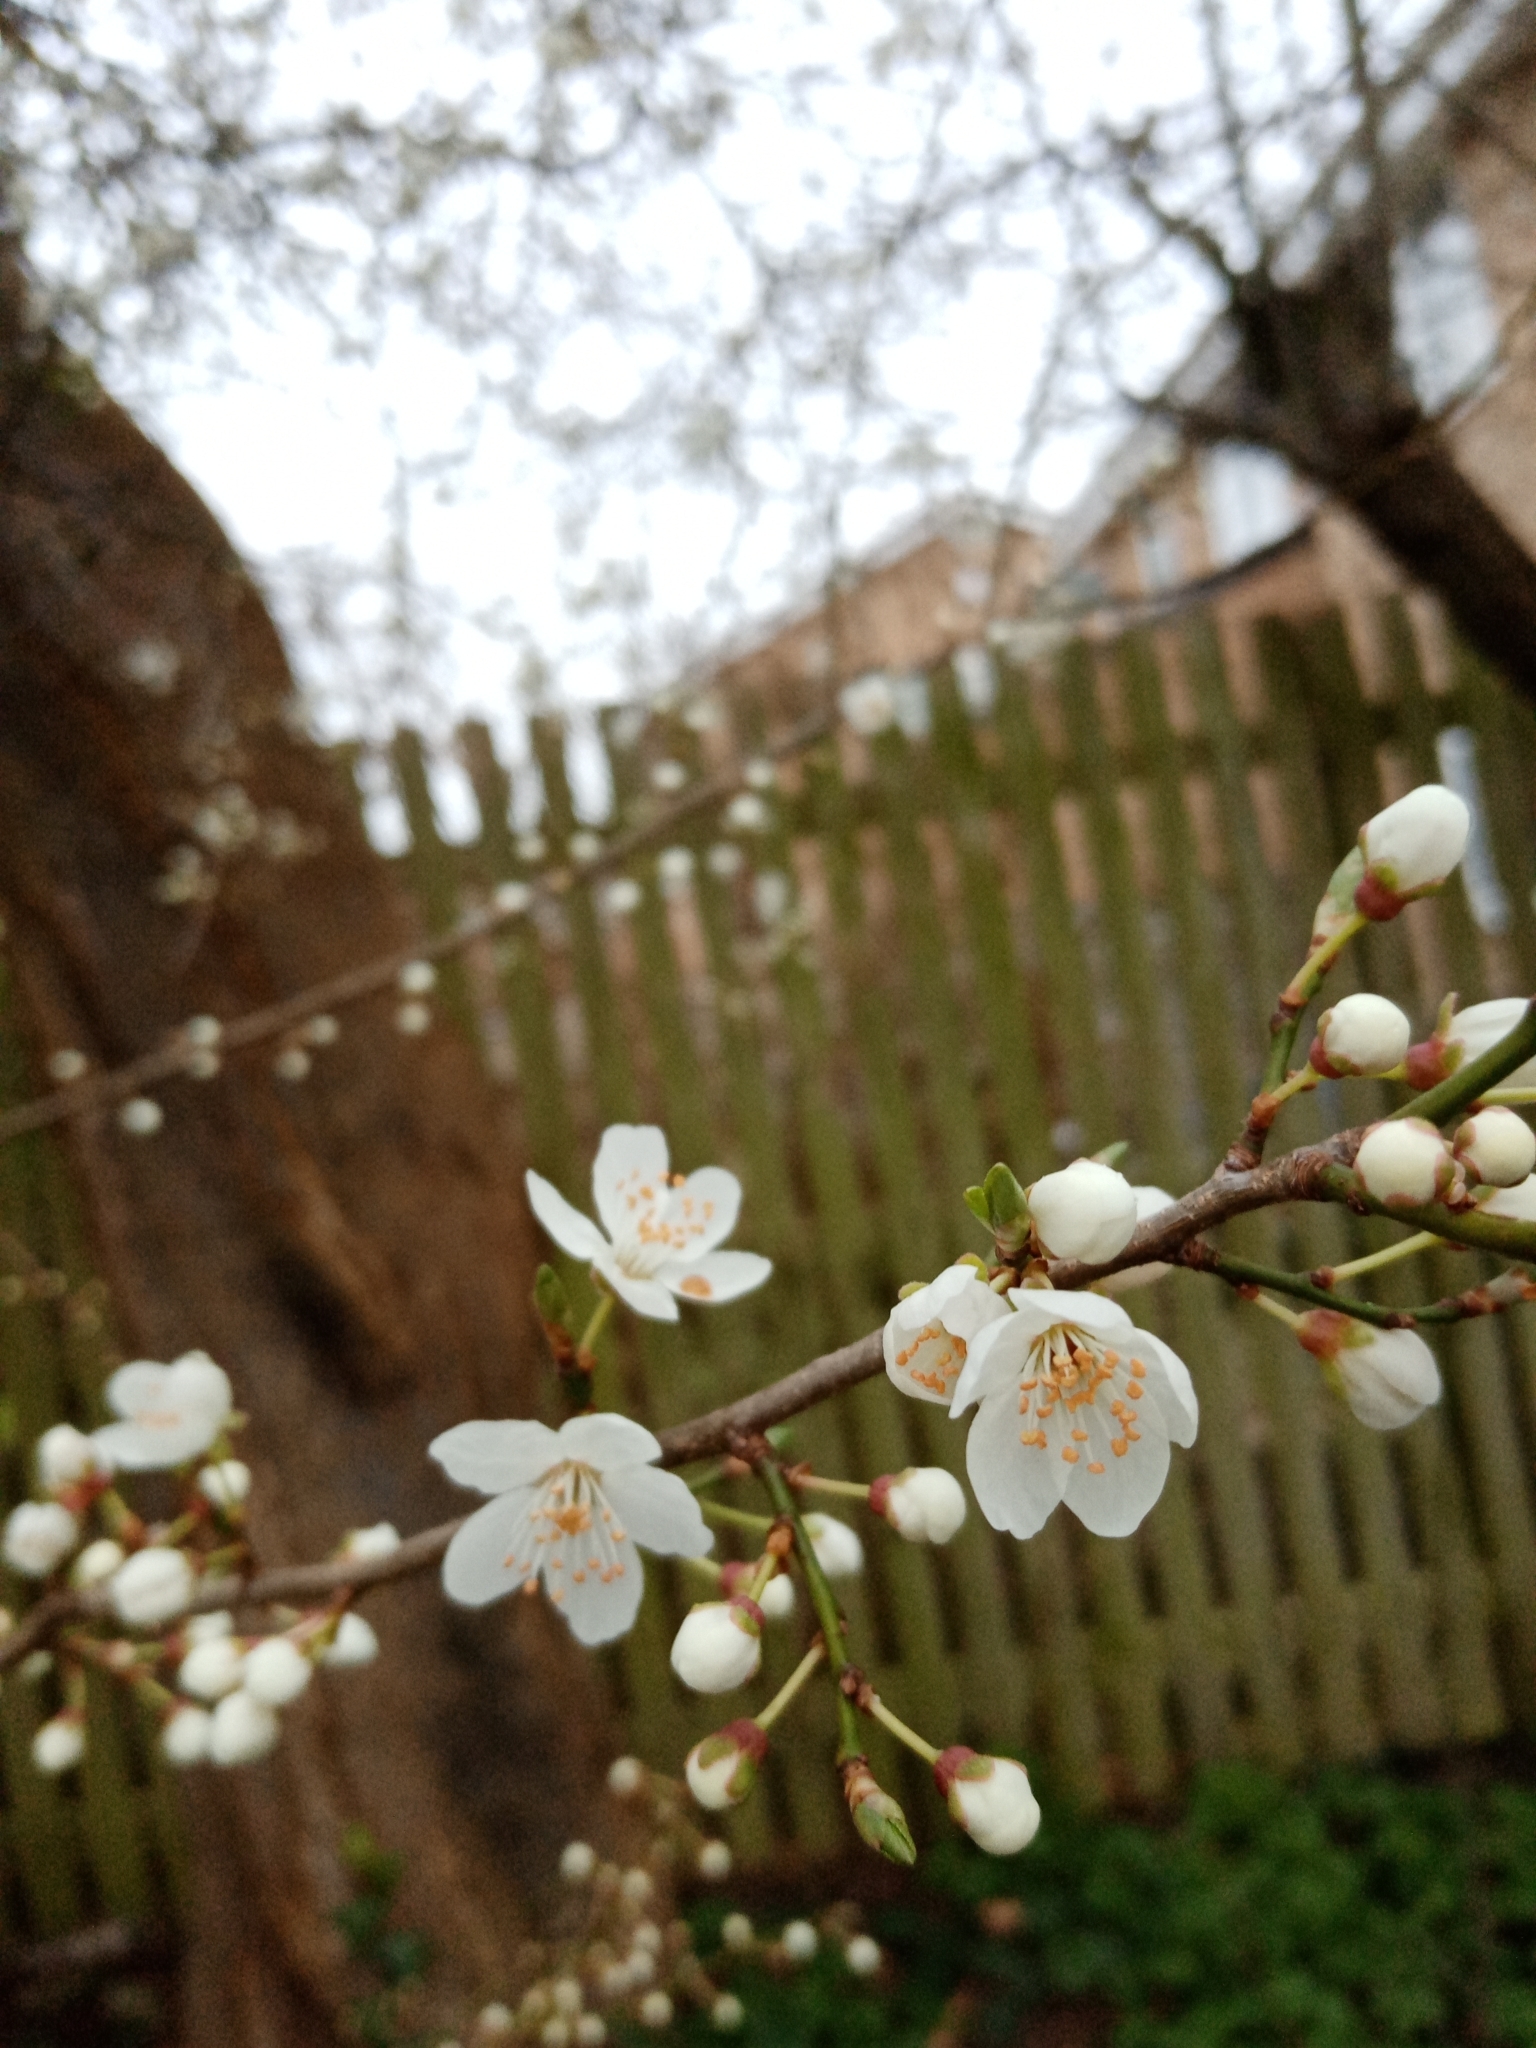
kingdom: Plantae
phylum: Tracheophyta
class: Magnoliopsida
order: Rosales
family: Rosaceae
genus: Prunus
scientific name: Prunus cerasifera
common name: Cherry plum
